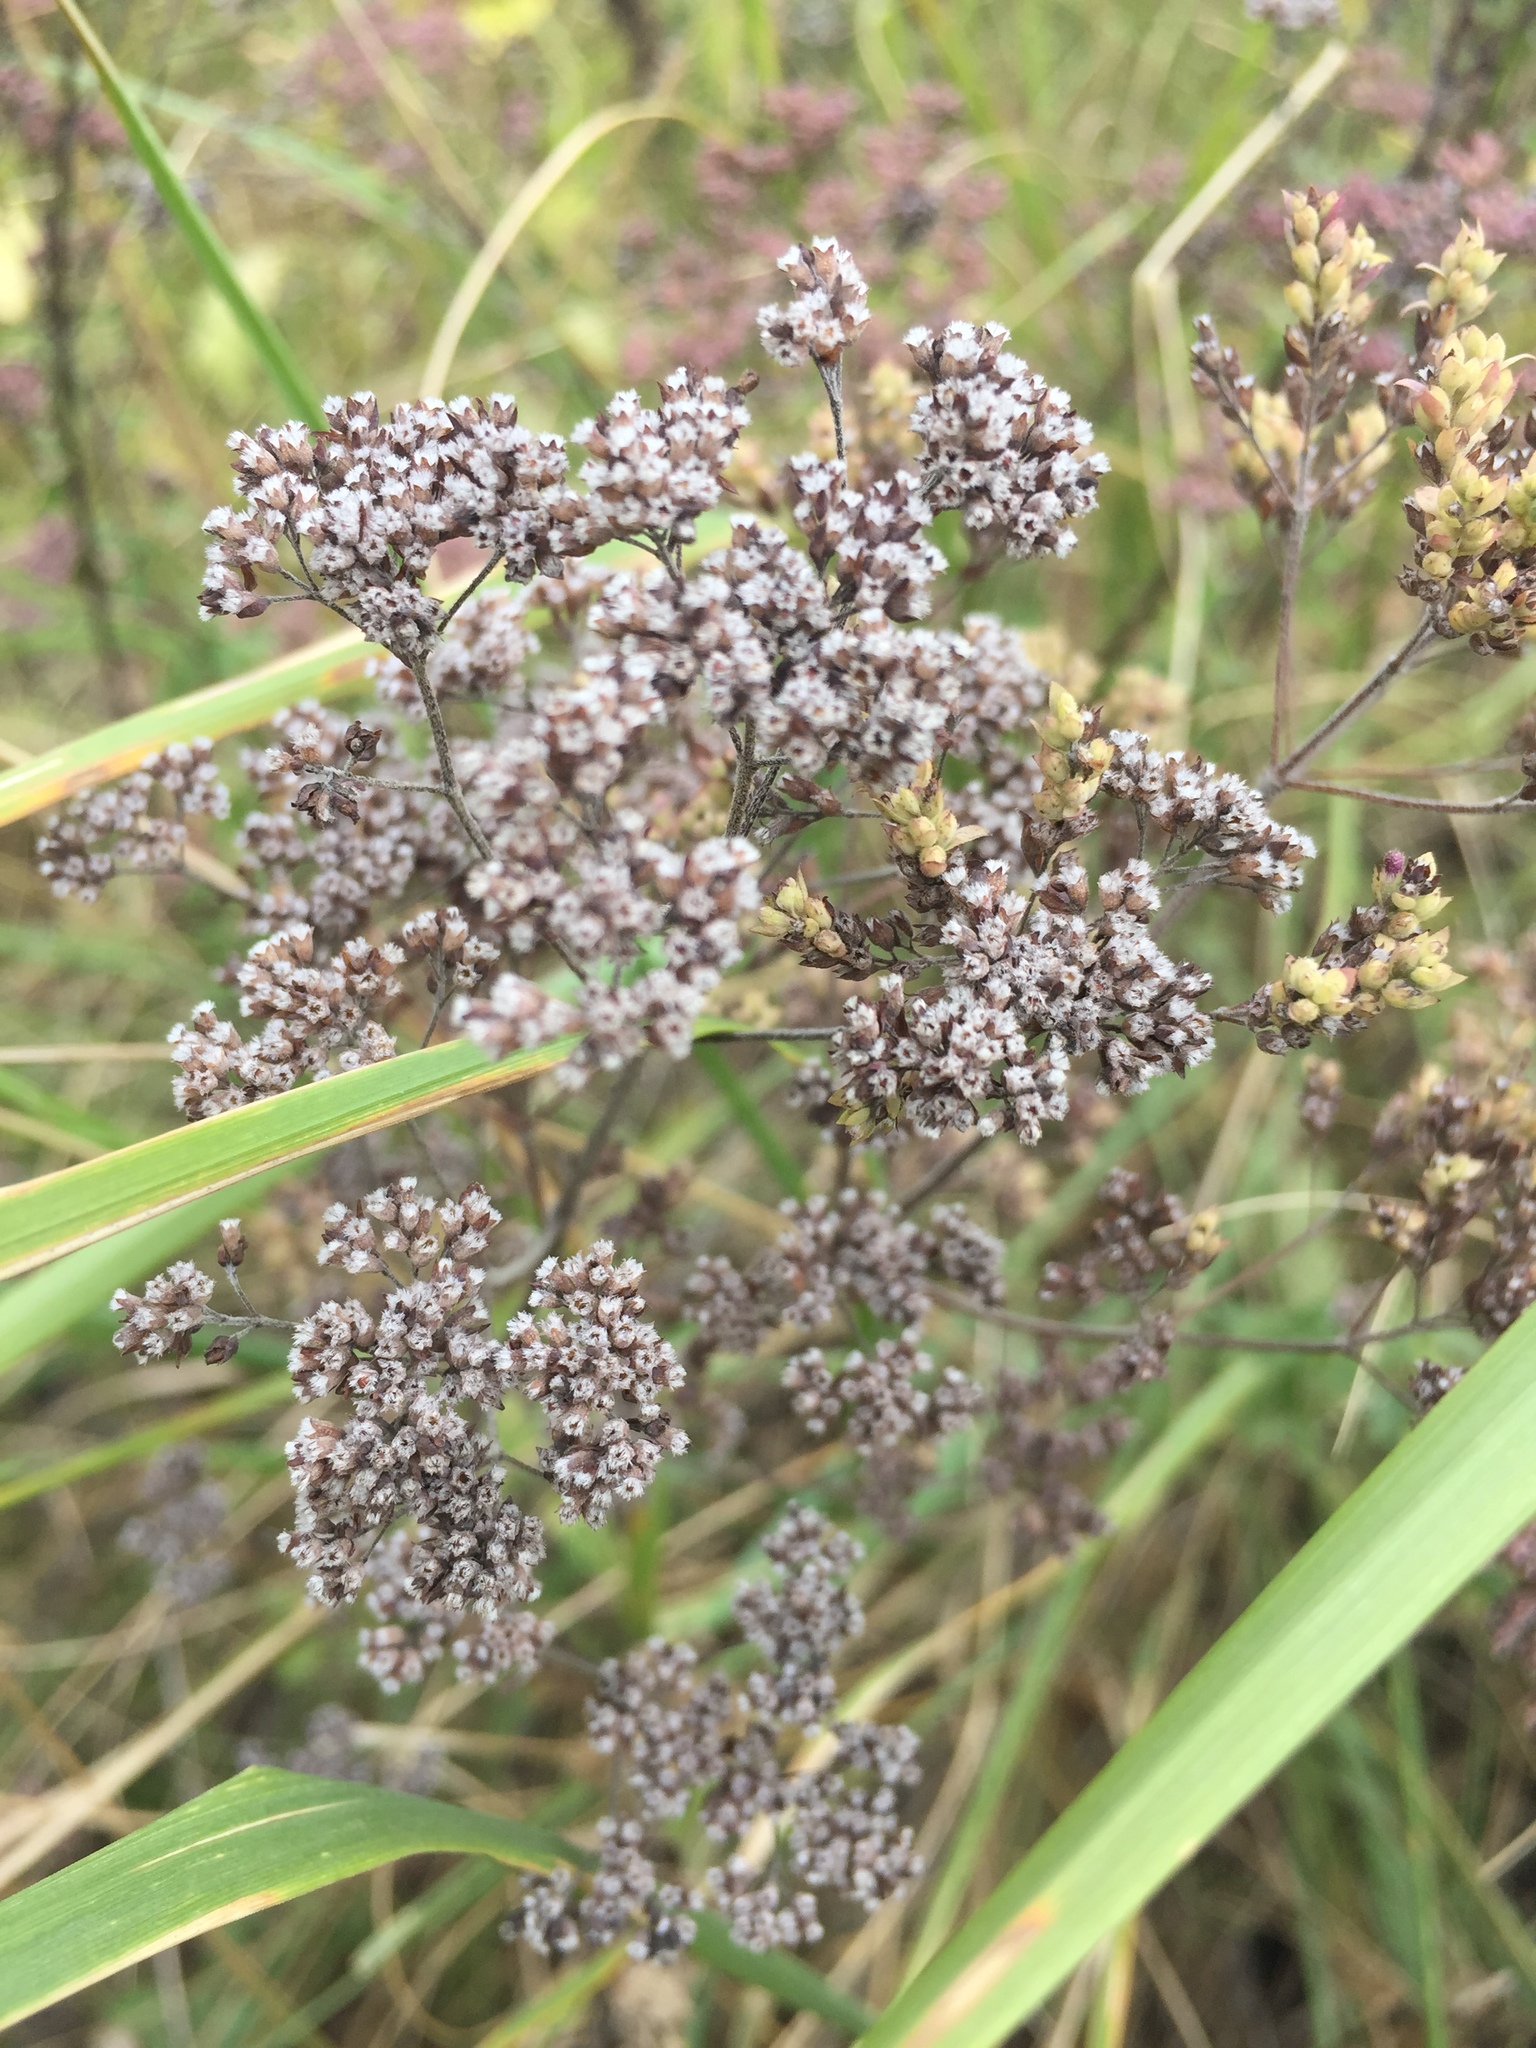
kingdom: Plantae
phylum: Tracheophyta
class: Magnoliopsida
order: Lamiales
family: Lamiaceae
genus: Origanum
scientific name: Origanum vulgare
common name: Wild marjoram
